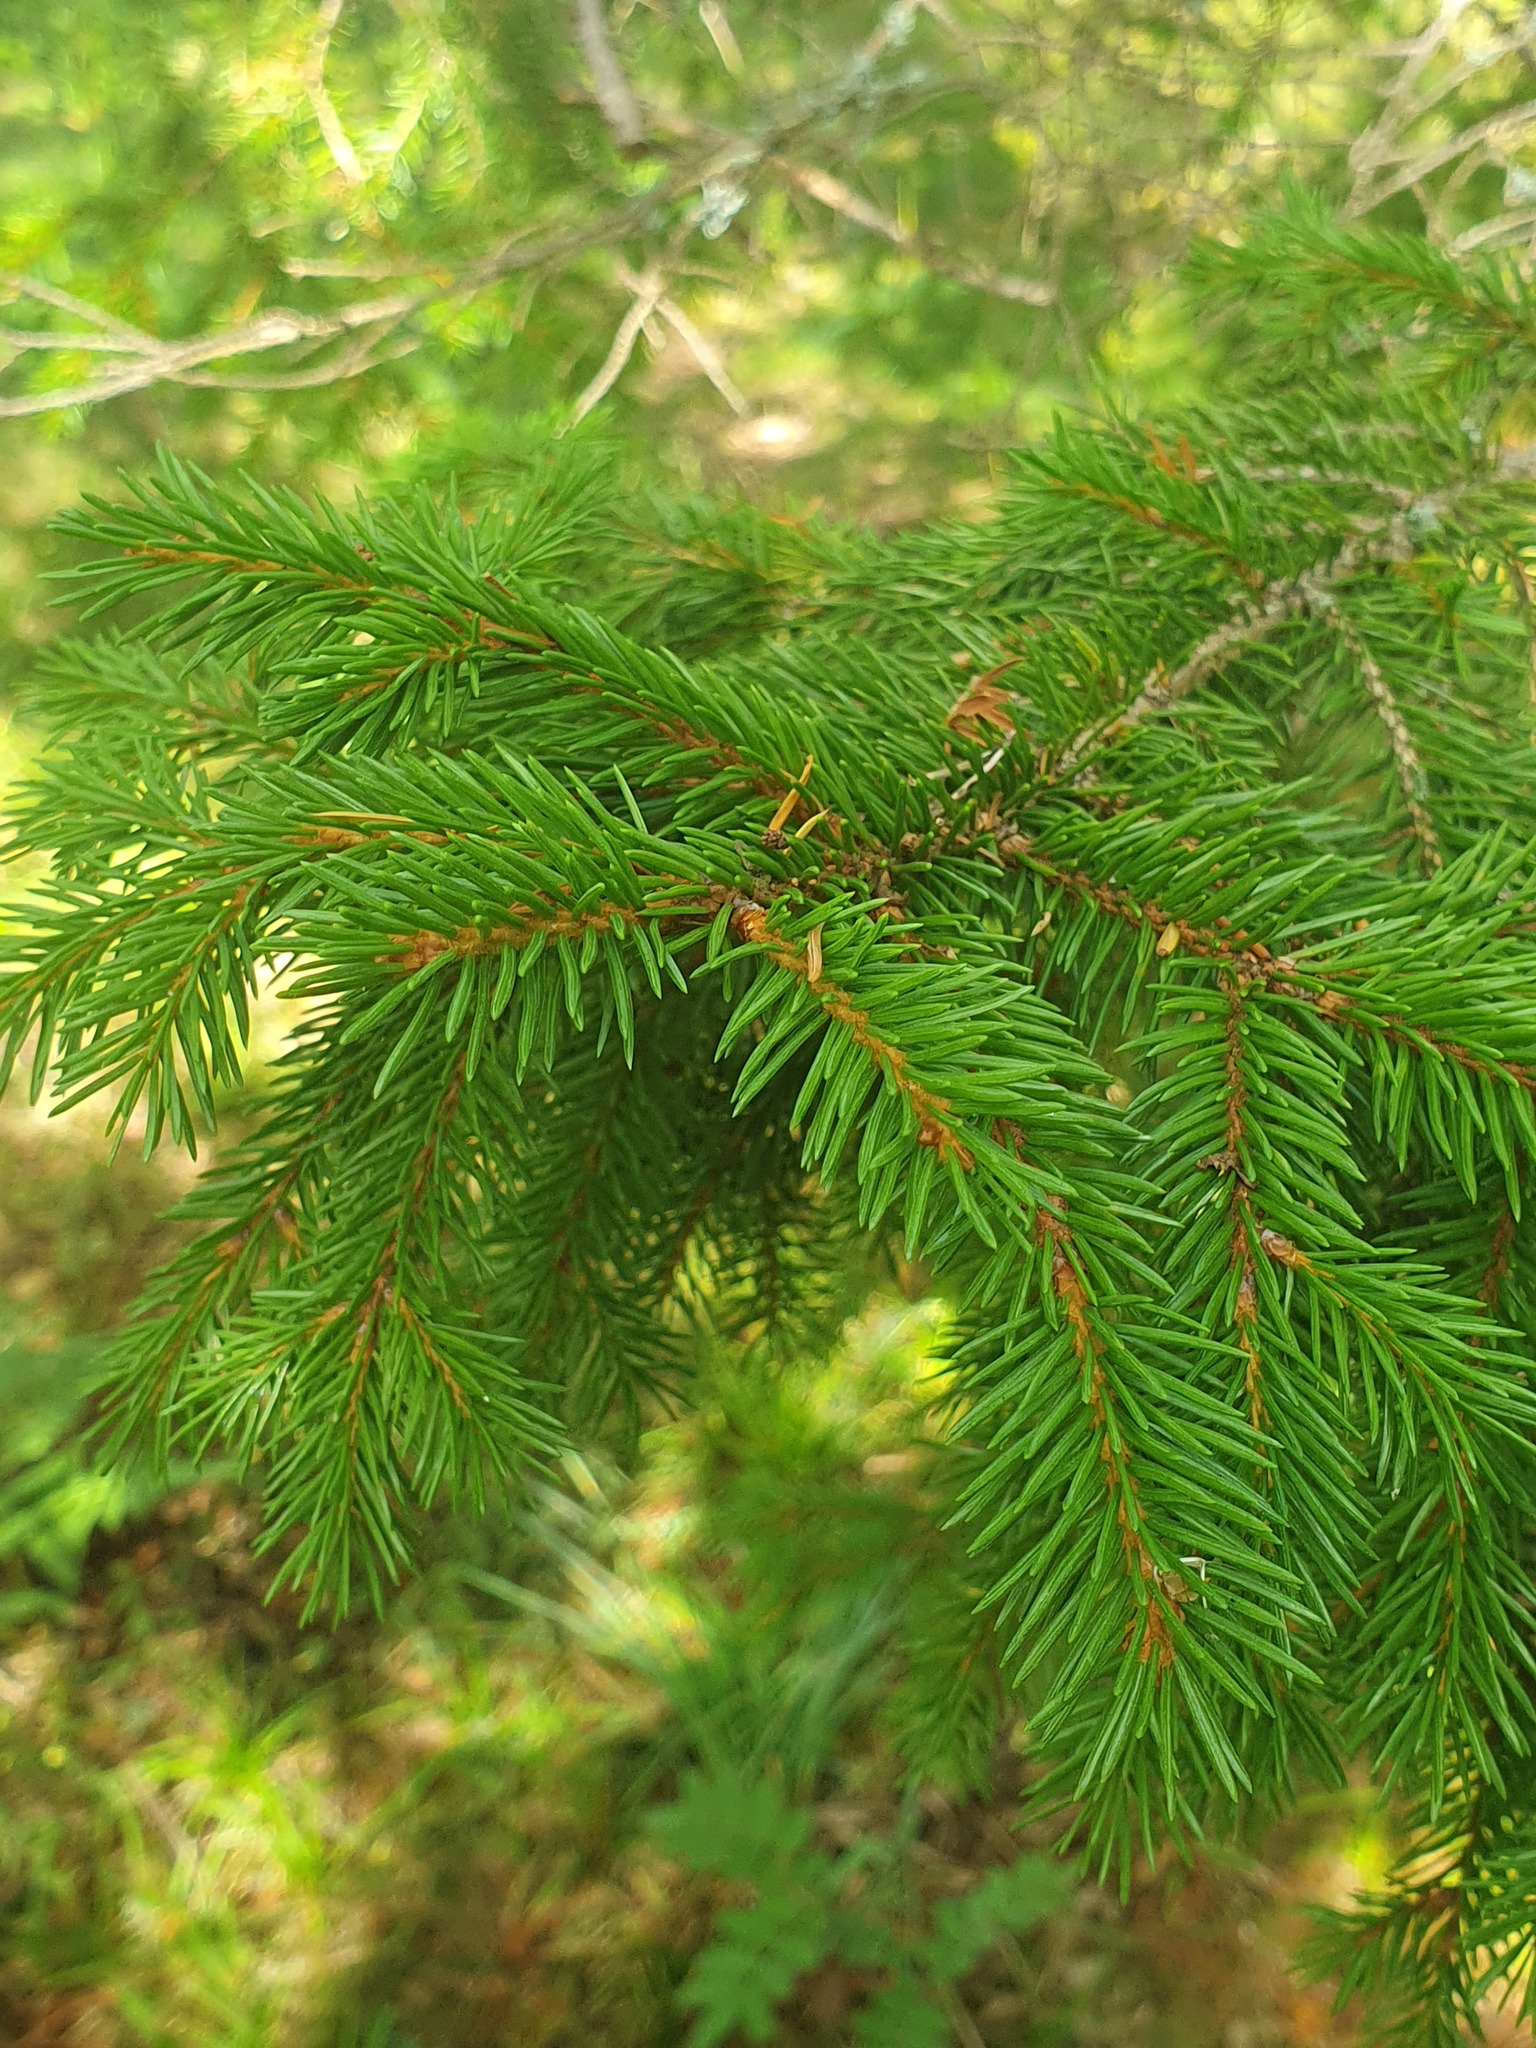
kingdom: Plantae
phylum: Tracheophyta
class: Pinopsida
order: Pinales
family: Pinaceae
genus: Picea
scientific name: Picea abies
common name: Norway spruce
